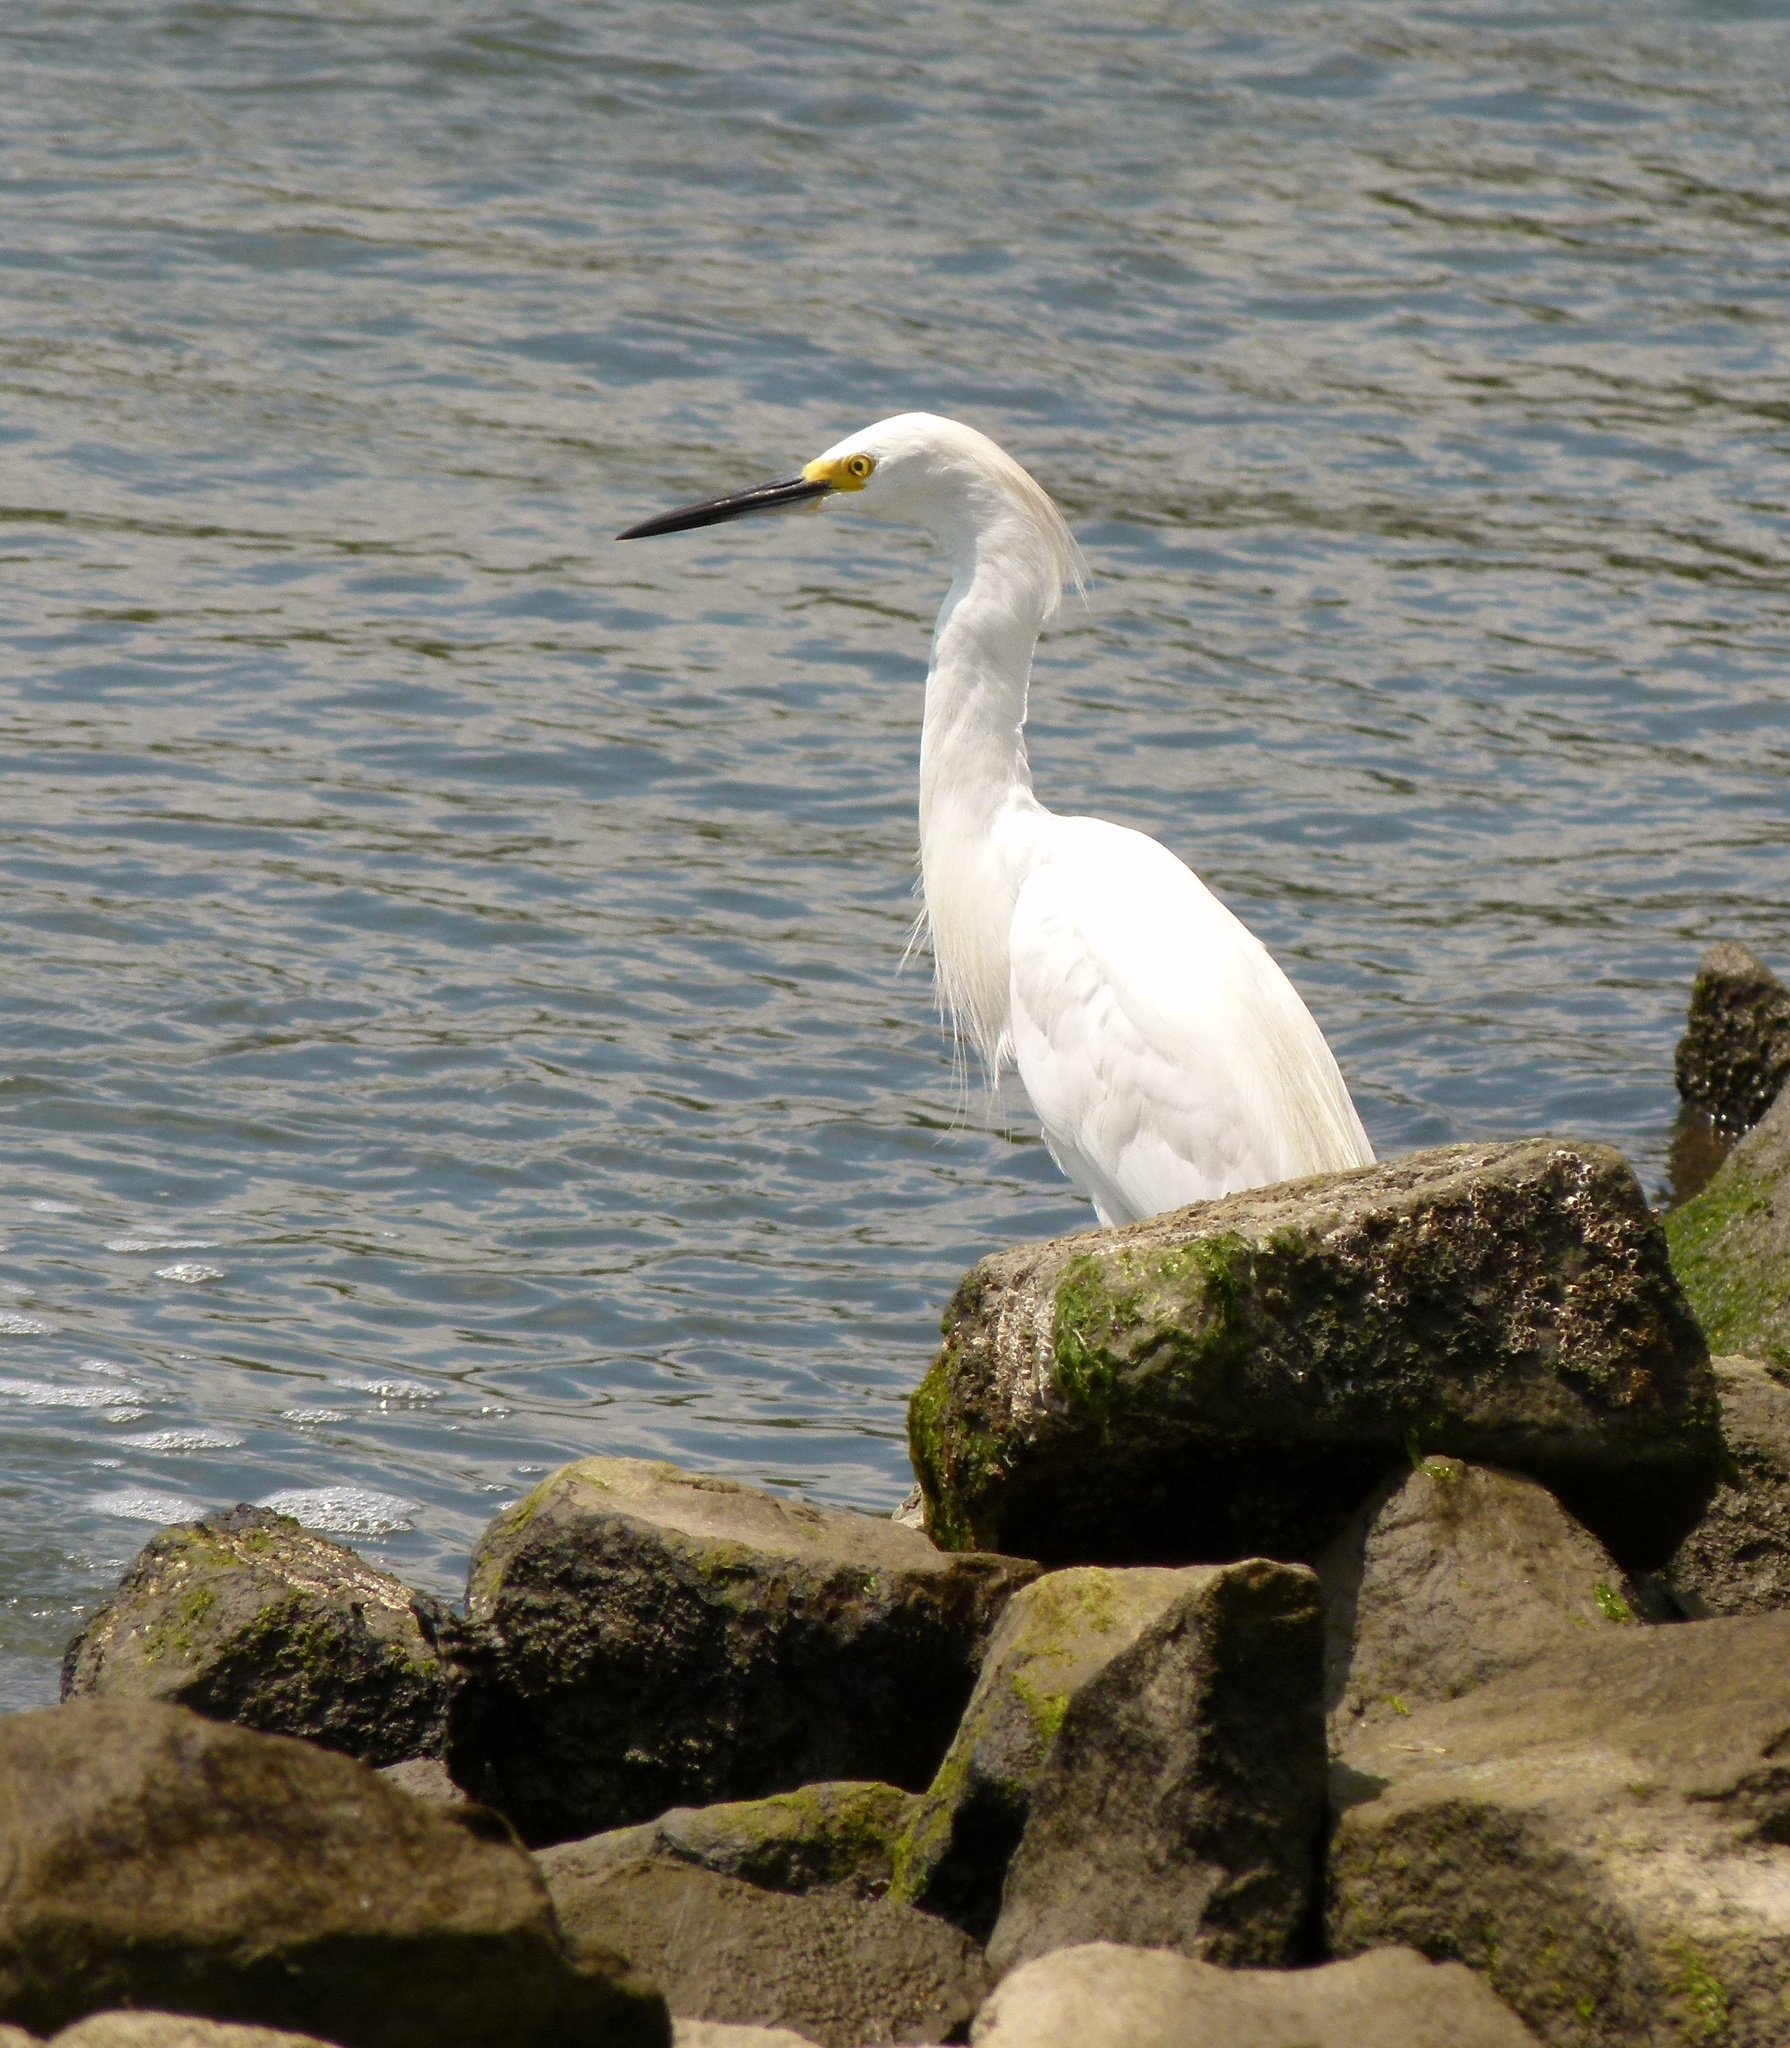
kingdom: Animalia
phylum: Chordata
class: Aves
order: Pelecaniformes
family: Ardeidae
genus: Egretta
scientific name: Egretta thula
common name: Snowy egret
